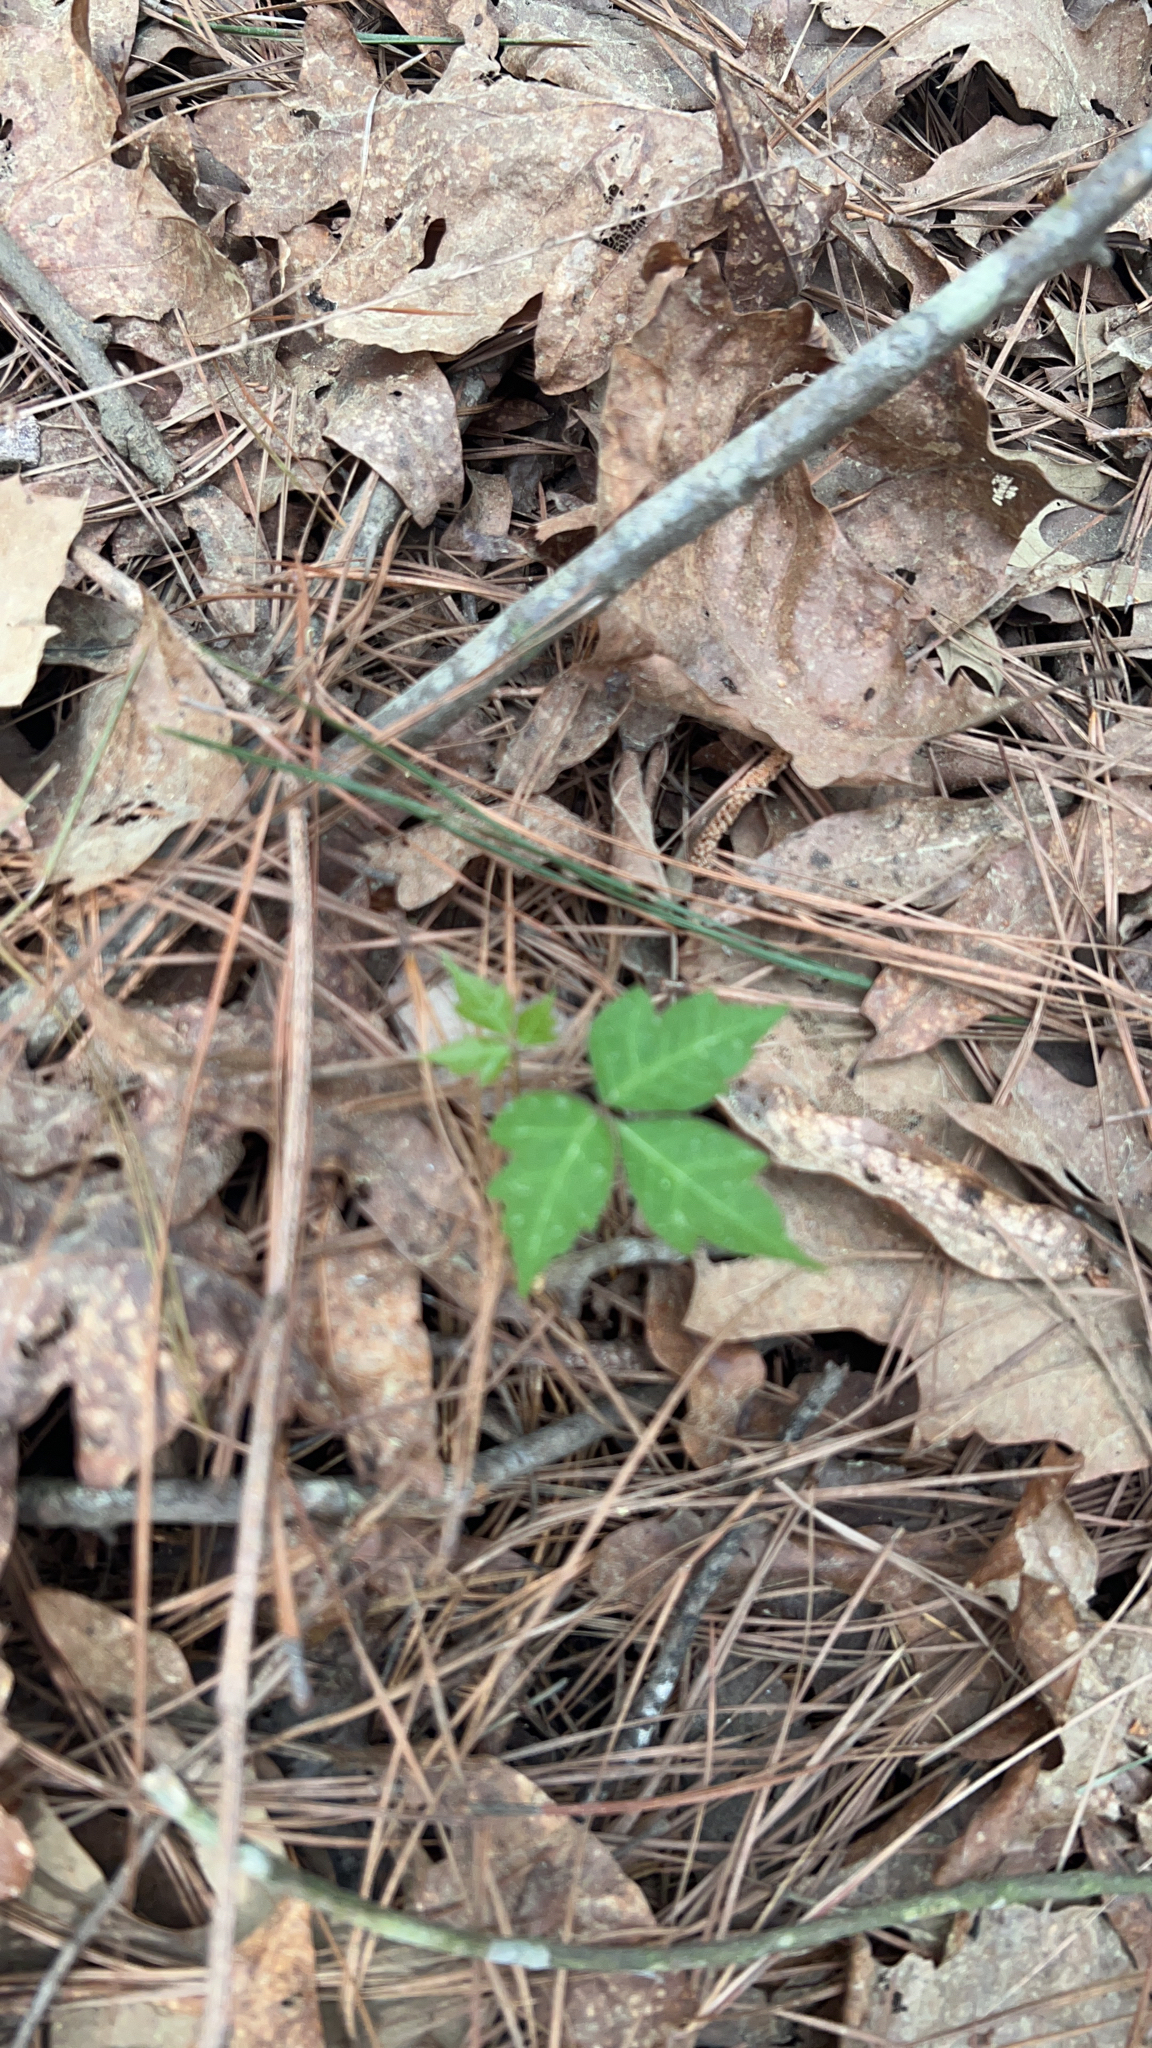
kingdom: Plantae
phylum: Tracheophyta
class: Magnoliopsida
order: Sapindales
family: Anacardiaceae
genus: Toxicodendron
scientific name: Toxicodendron radicans
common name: Poison ivy
